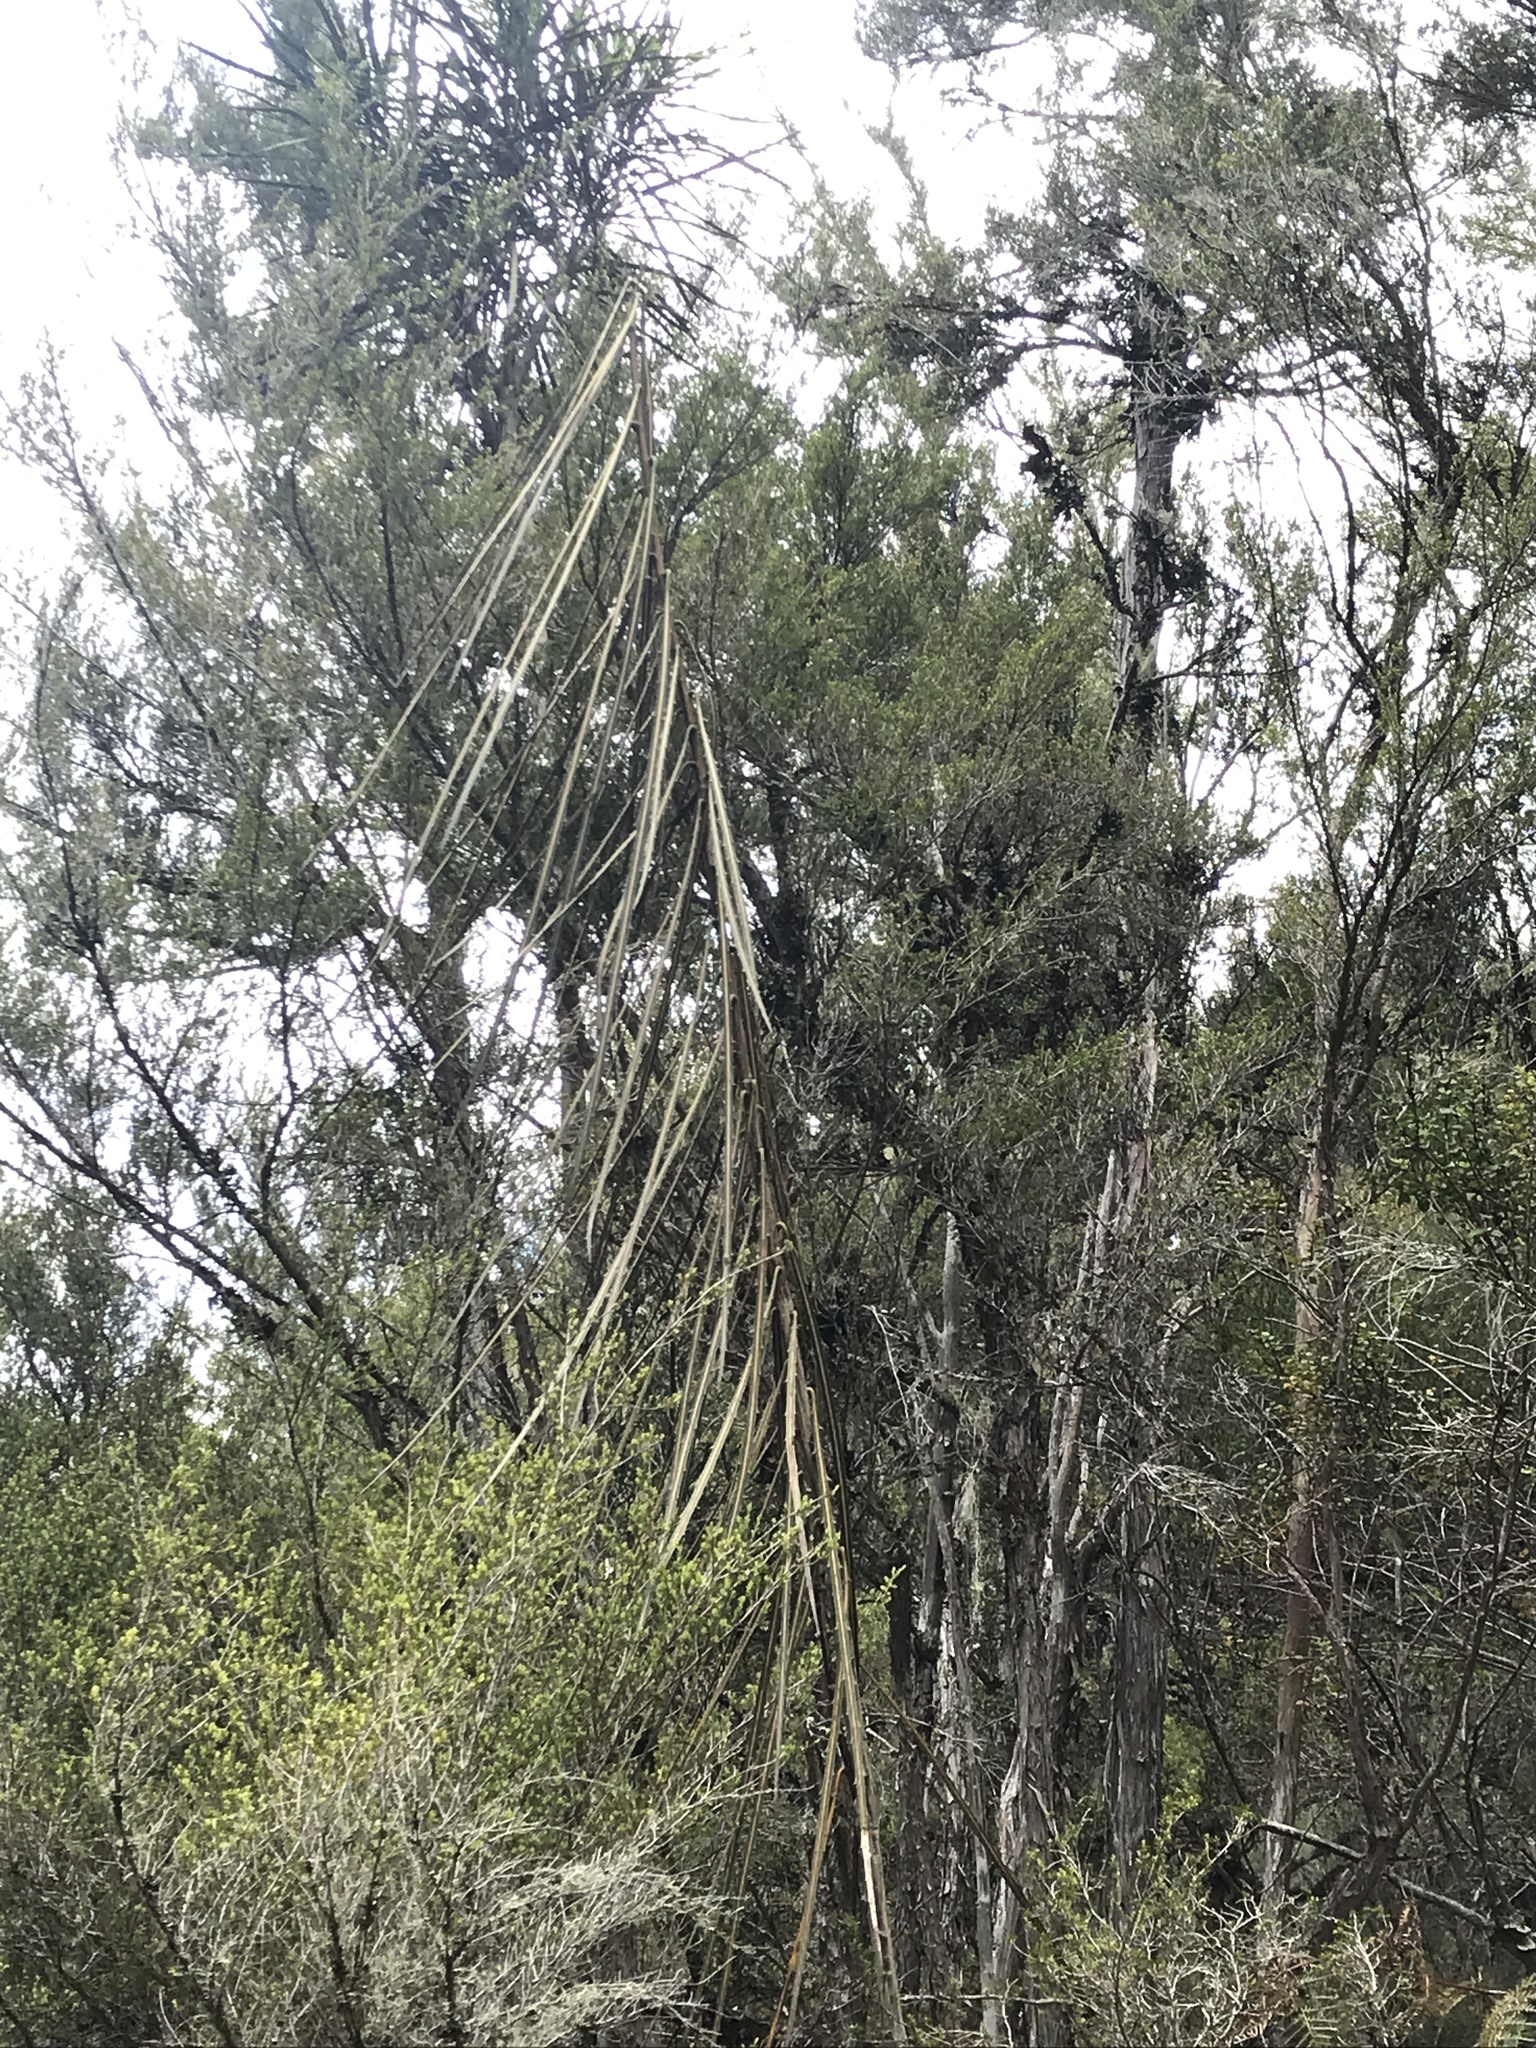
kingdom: Plantae
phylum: Tracheophyta
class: Magnoliopsida
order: Apiales
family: Araliaceae
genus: Pseudopanax
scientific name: Pseudopanax crassifolius
